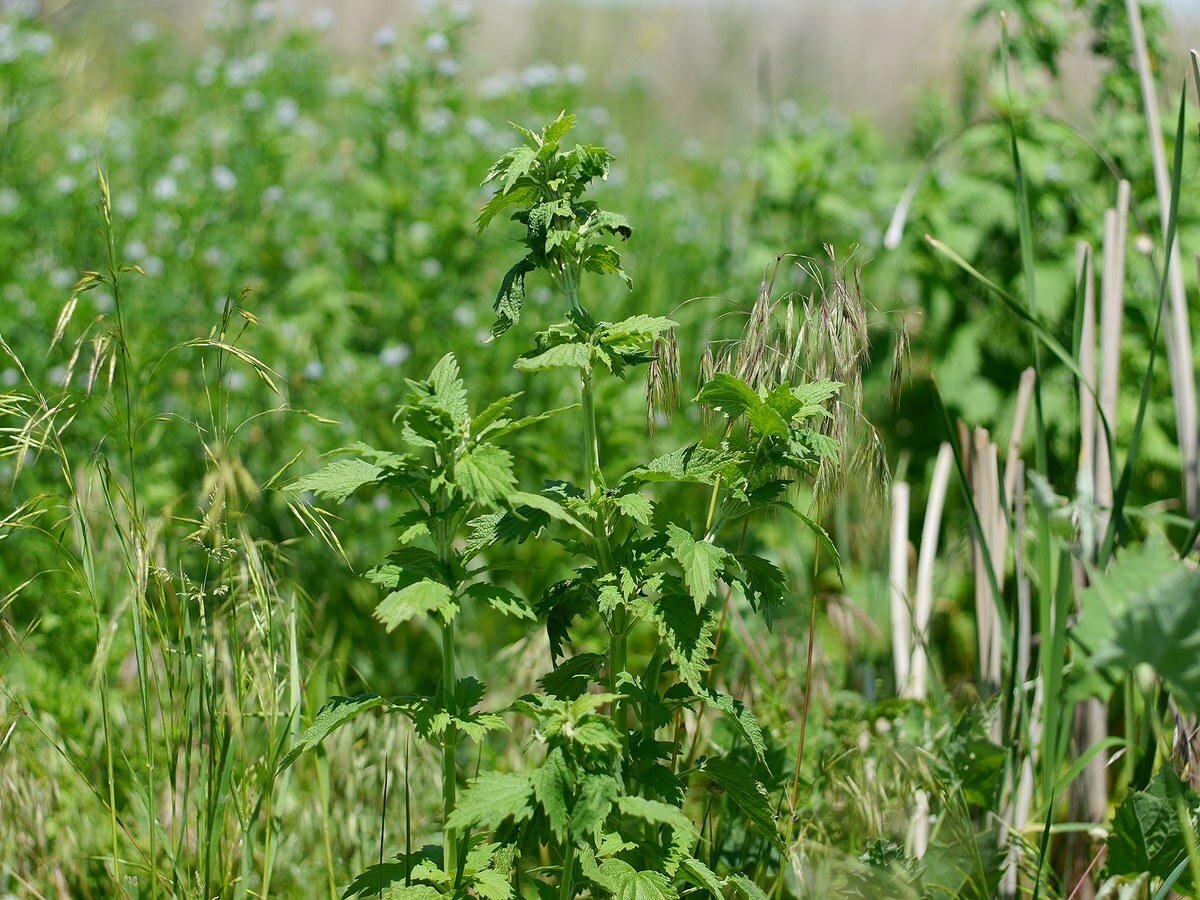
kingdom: Plantae
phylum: Tracheophyta
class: Magnoliopsida
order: Lamiales
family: Lamiaceae
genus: Chaiturus
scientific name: Chaiturus marrubiastrum
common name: Lion's tail
